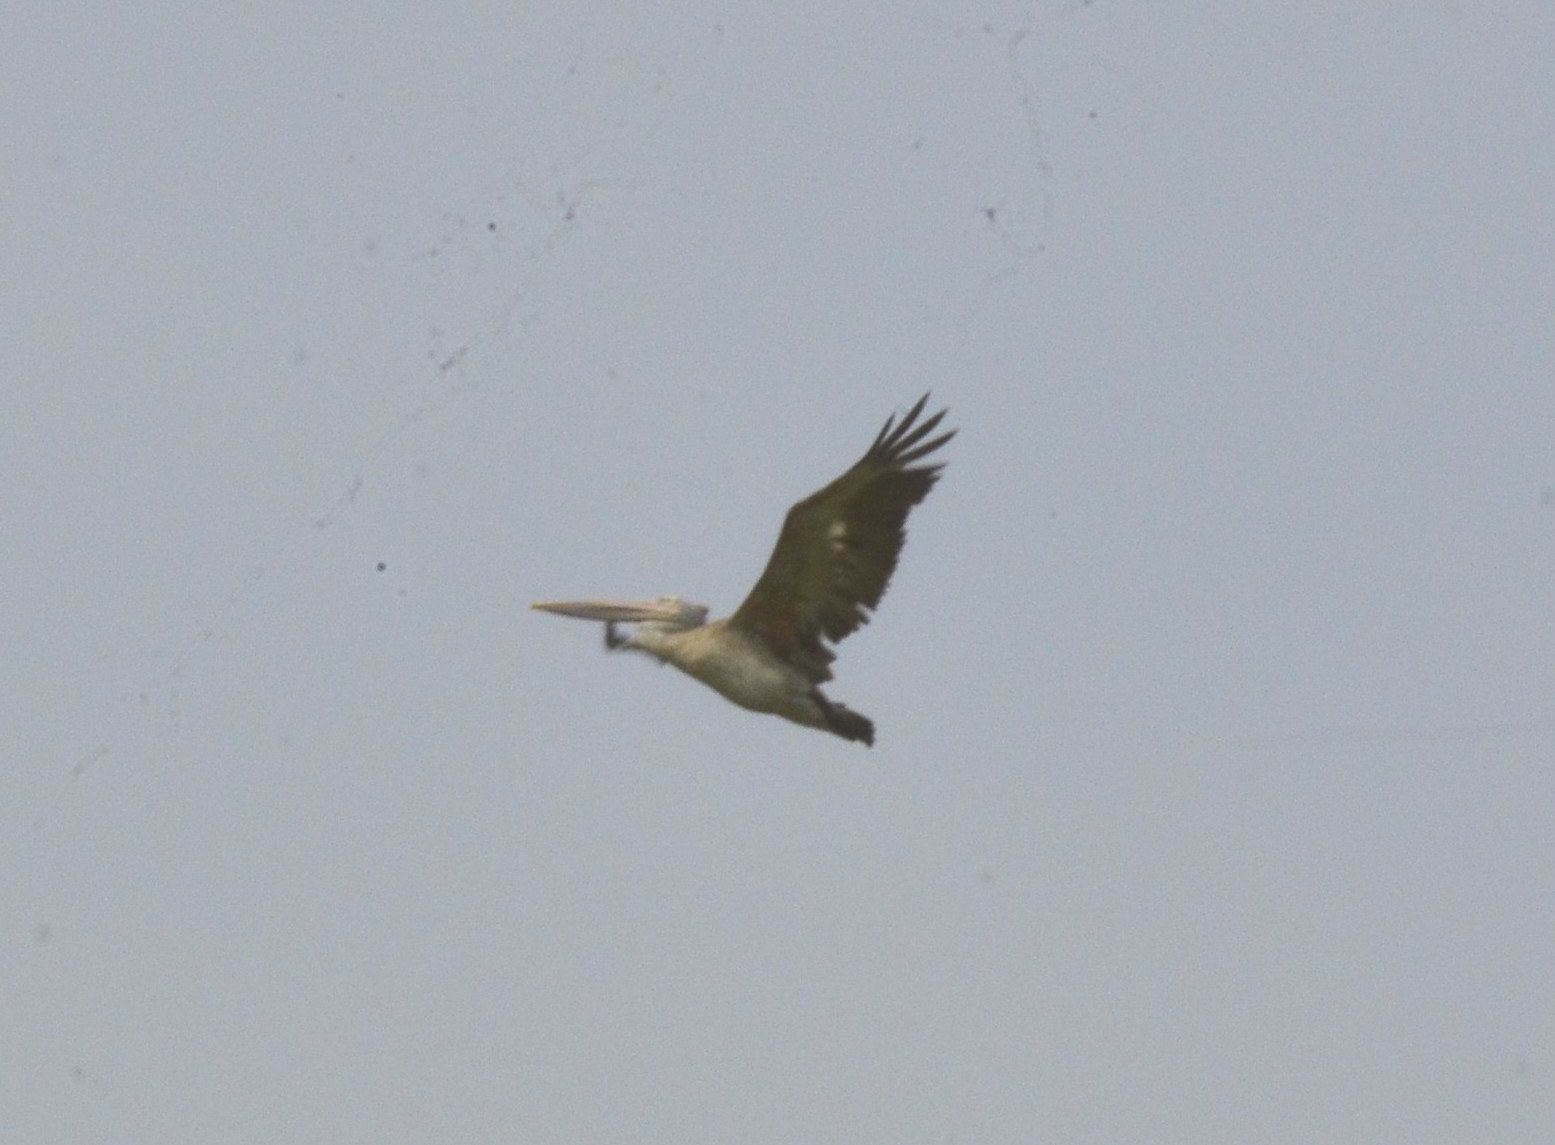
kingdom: Animalia
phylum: Chordata
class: Aves
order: Pelecaniformes
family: Pelecanidae
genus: Pelecanus
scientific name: Pelecanus philippensis
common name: Spot-billed pelican
